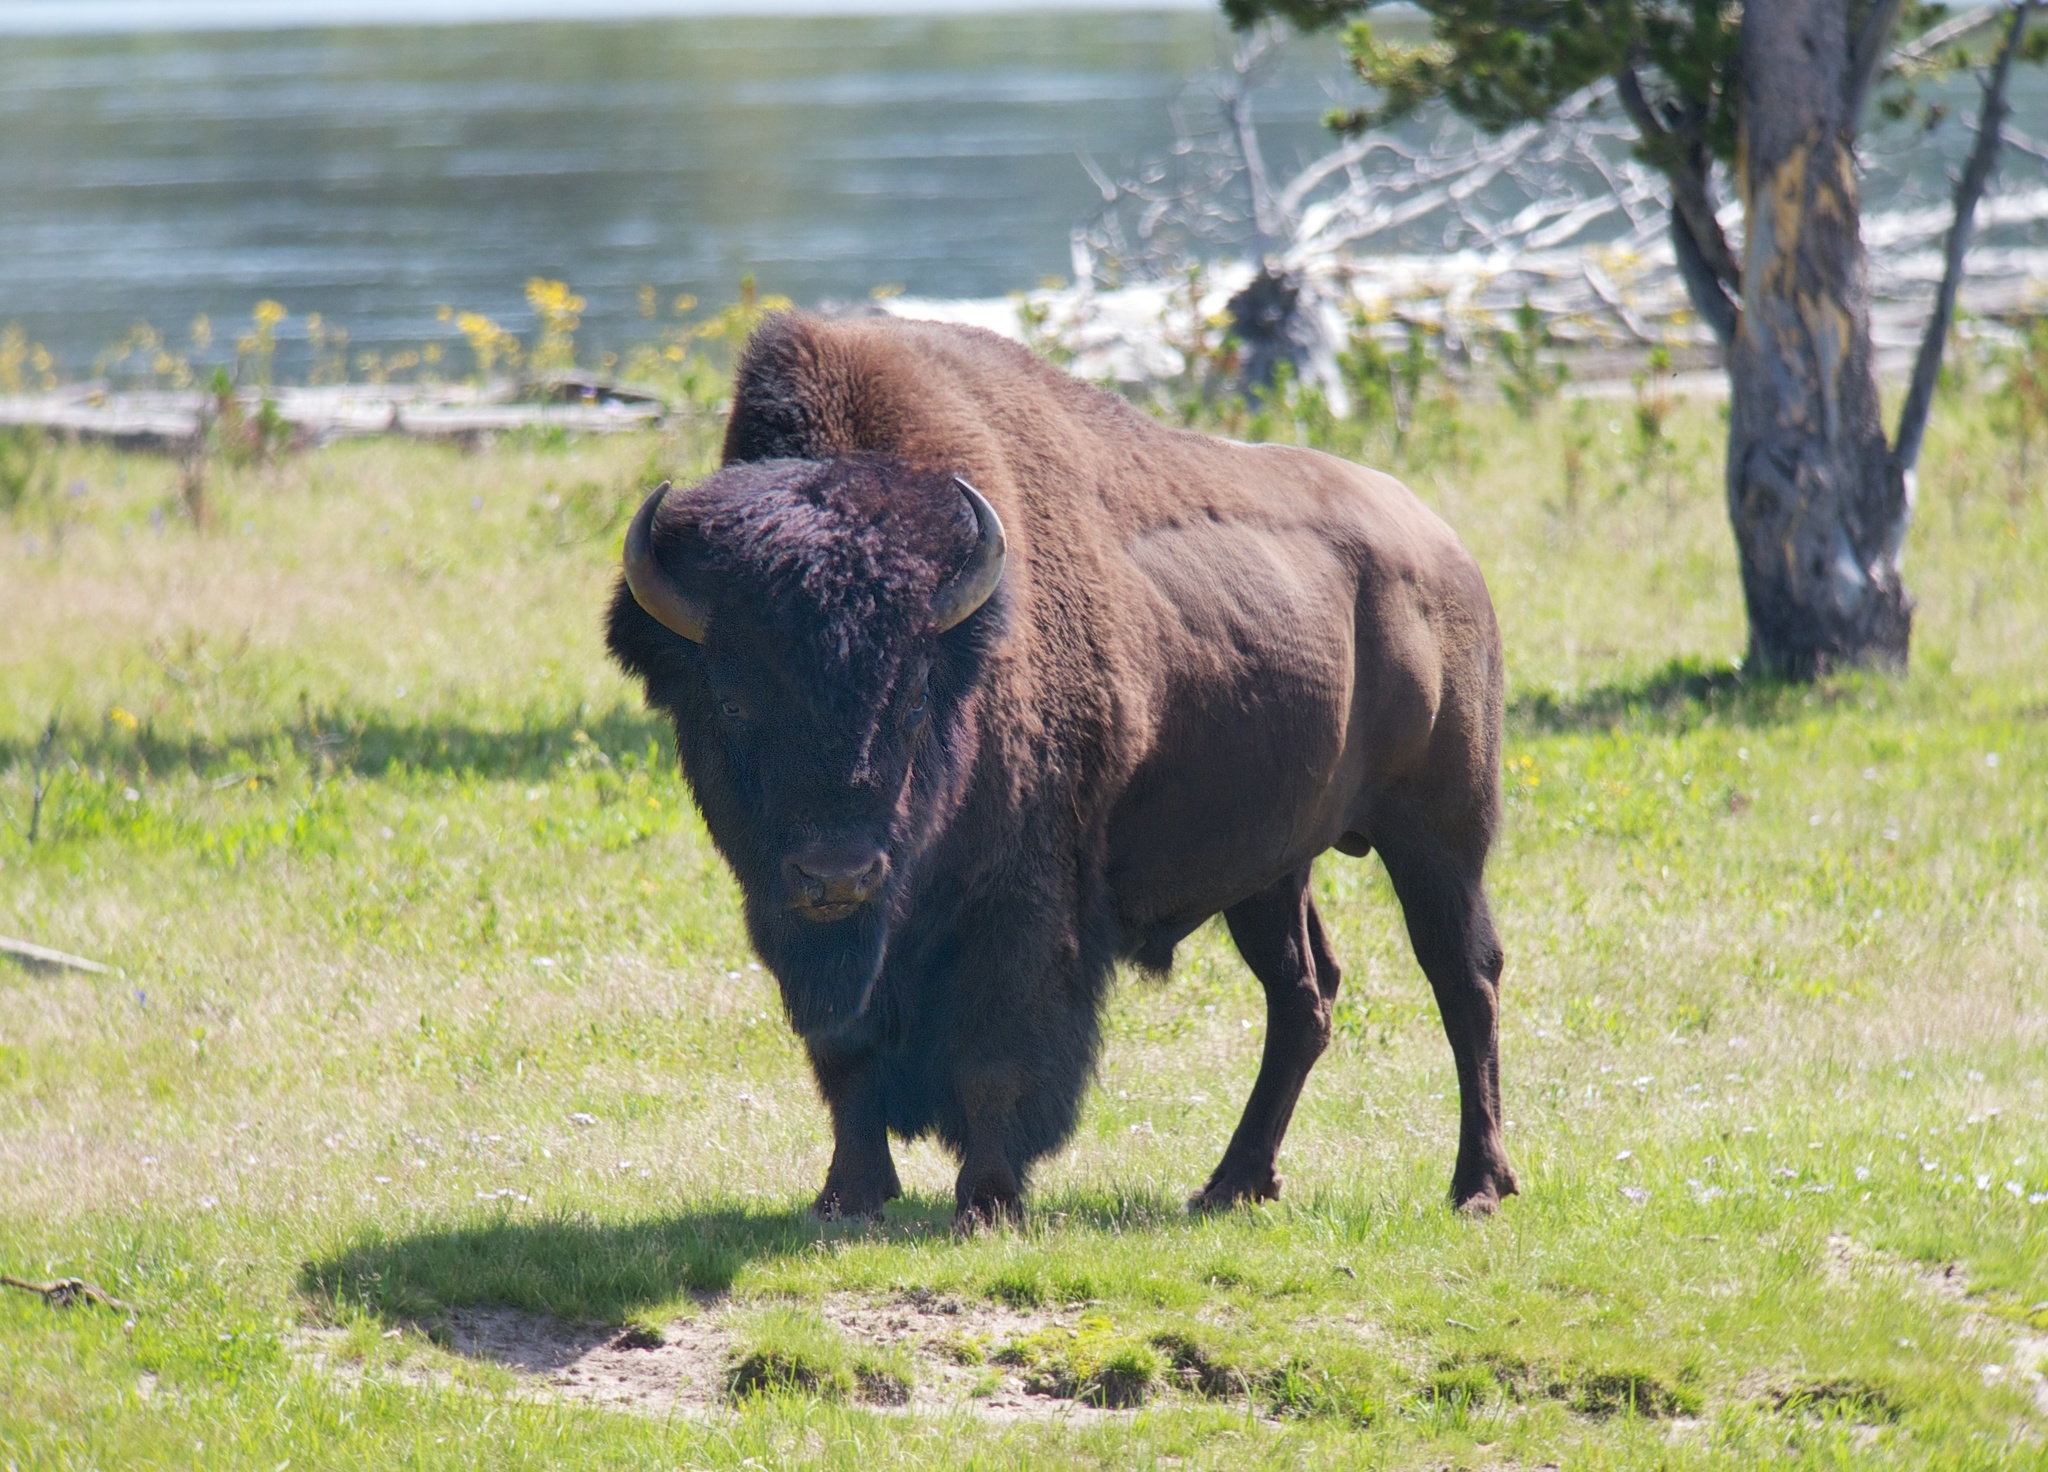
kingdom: Animalia
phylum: Chordata
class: Mammalia
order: Artiodactyla
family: Bovidae
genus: Bison
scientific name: Bison bison
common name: American bison
